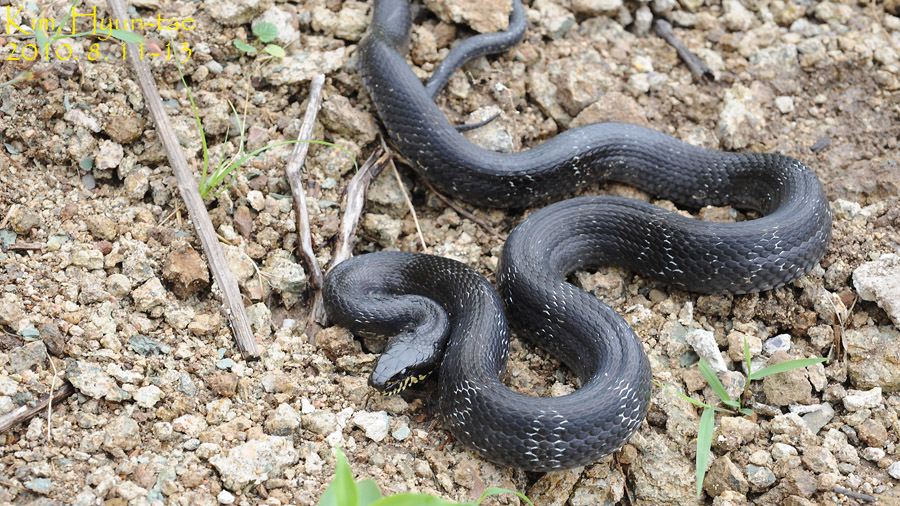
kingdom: Animalia
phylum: Chordata
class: Squamata
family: Colubridae
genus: Elaphe
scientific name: Elaphe schrenckii
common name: Amur rat snake
